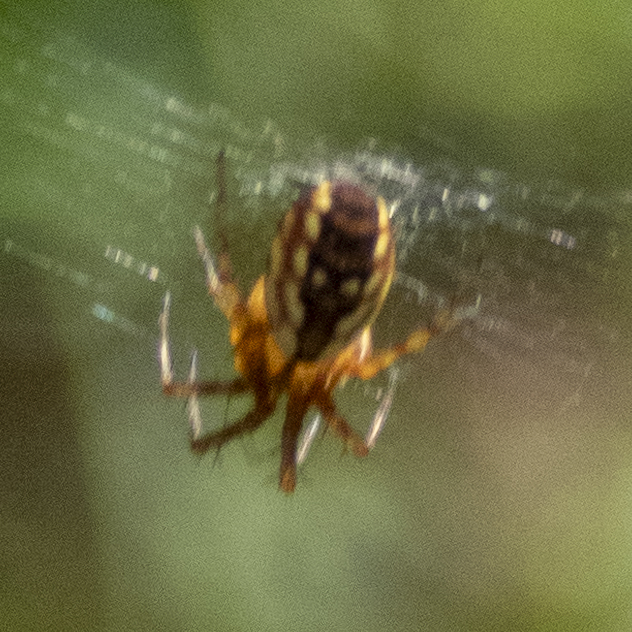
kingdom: Animalia
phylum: Arthropoda
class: Arachnida
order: Araneae
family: Araneidae
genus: Mangora
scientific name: Mangora placida
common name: Tuft-legged orbweaver
